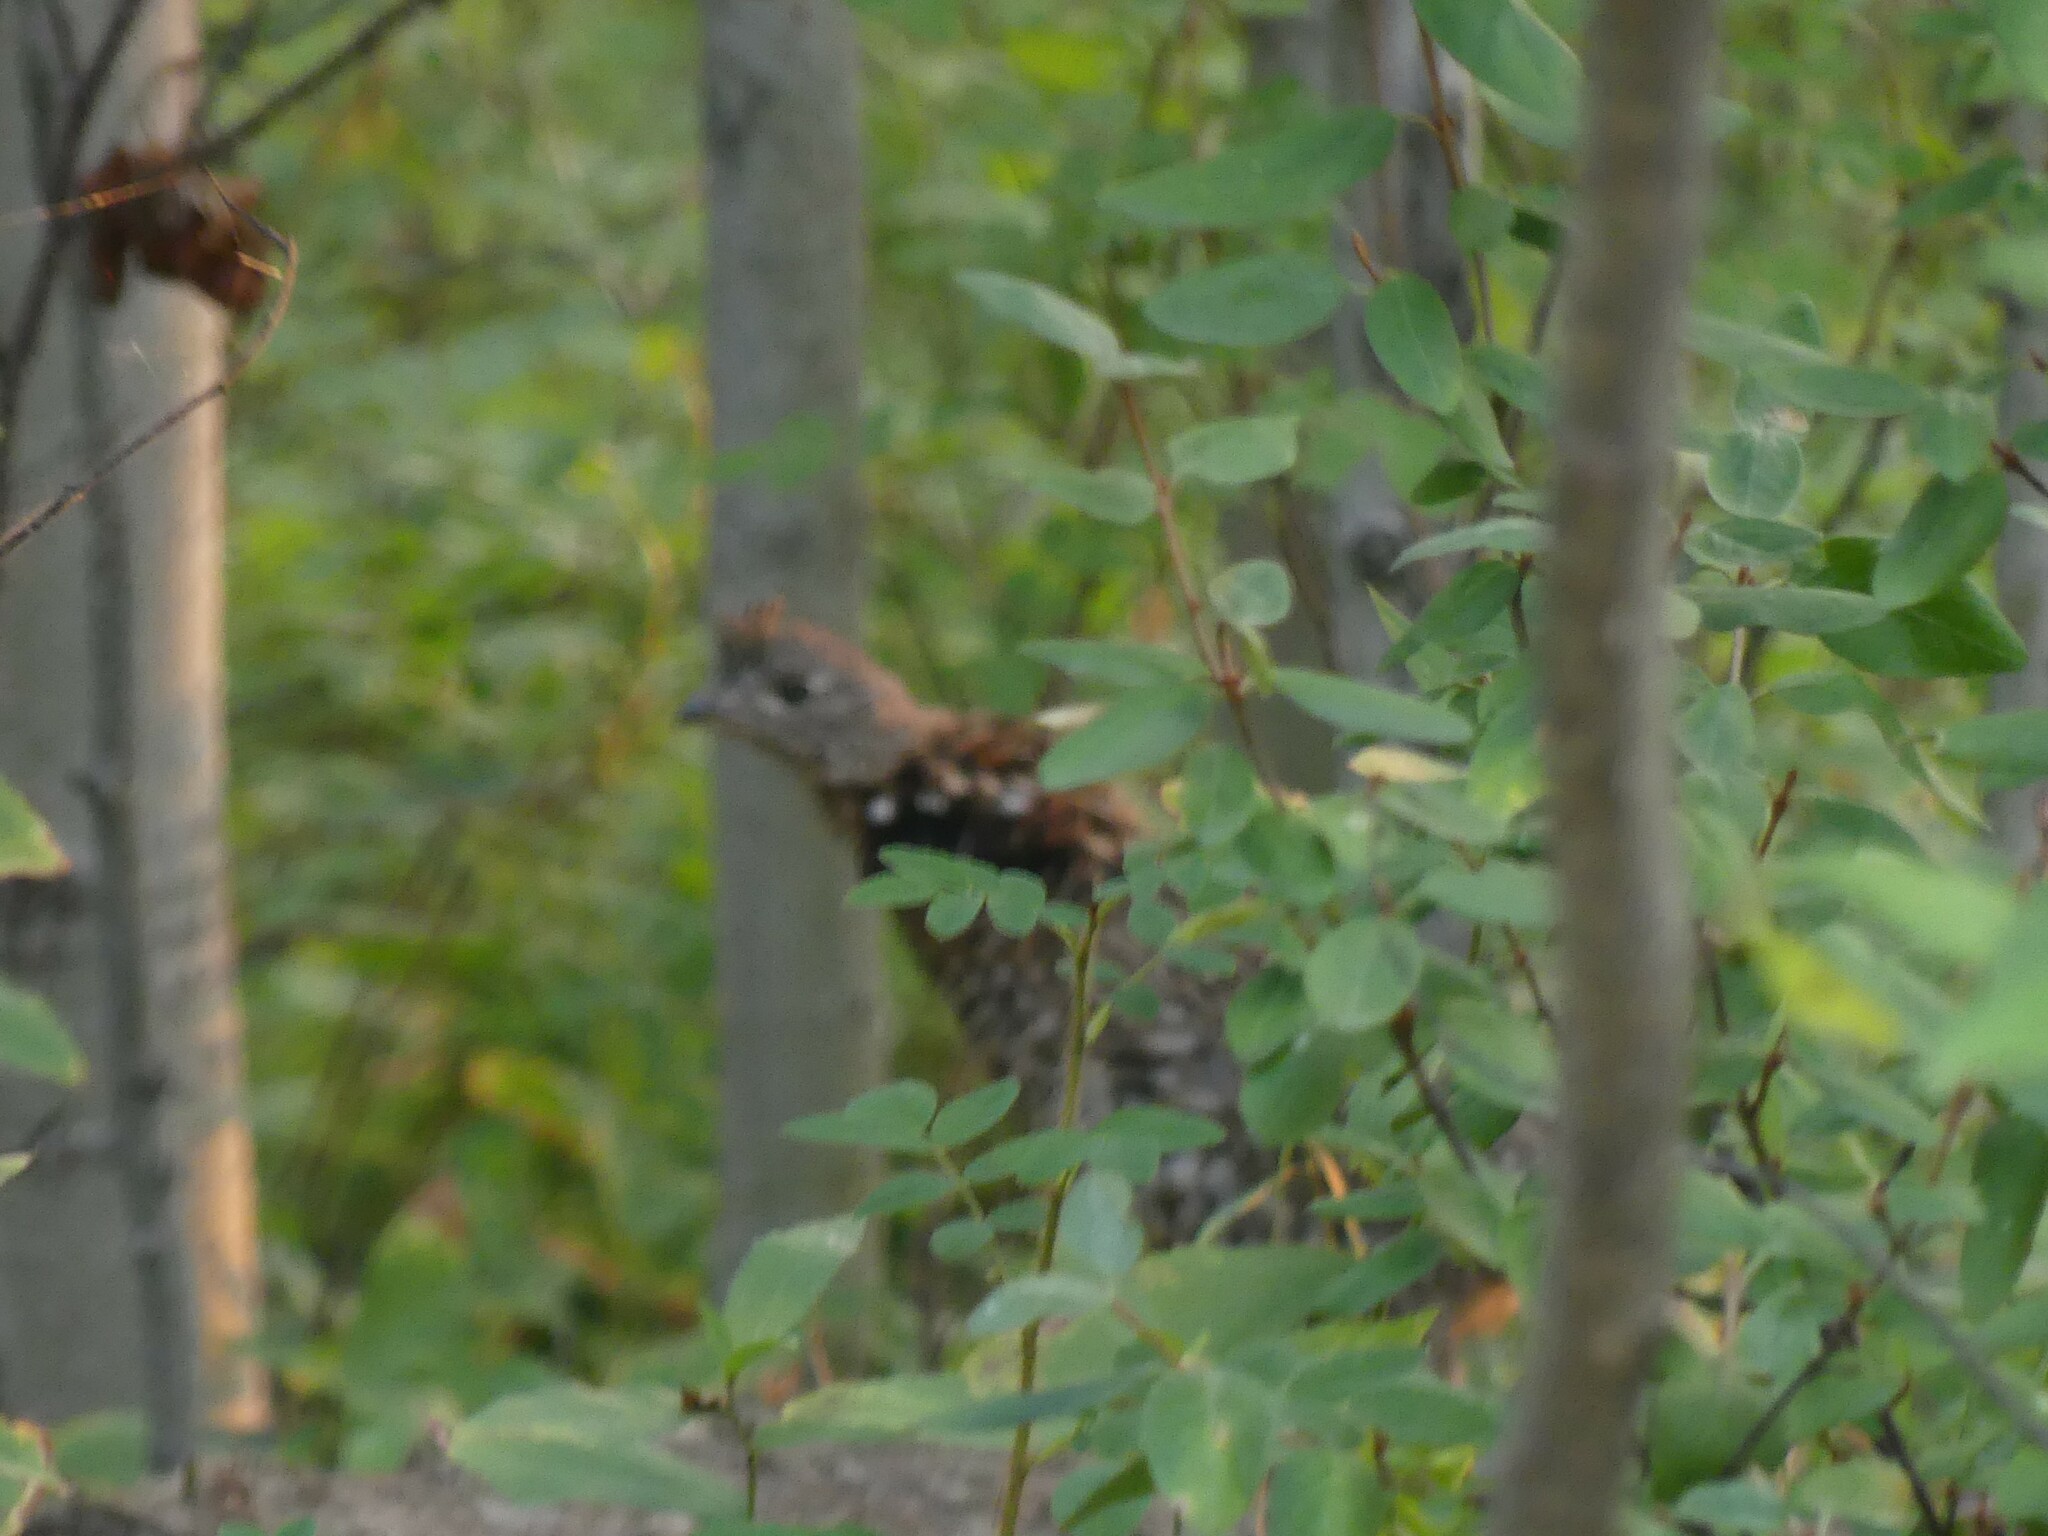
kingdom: Animalia
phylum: Chordata
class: Aves
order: Galliformes
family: Phasianidae
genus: Bonasa
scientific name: Bonasa umbellus
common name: Ruffed grouse
